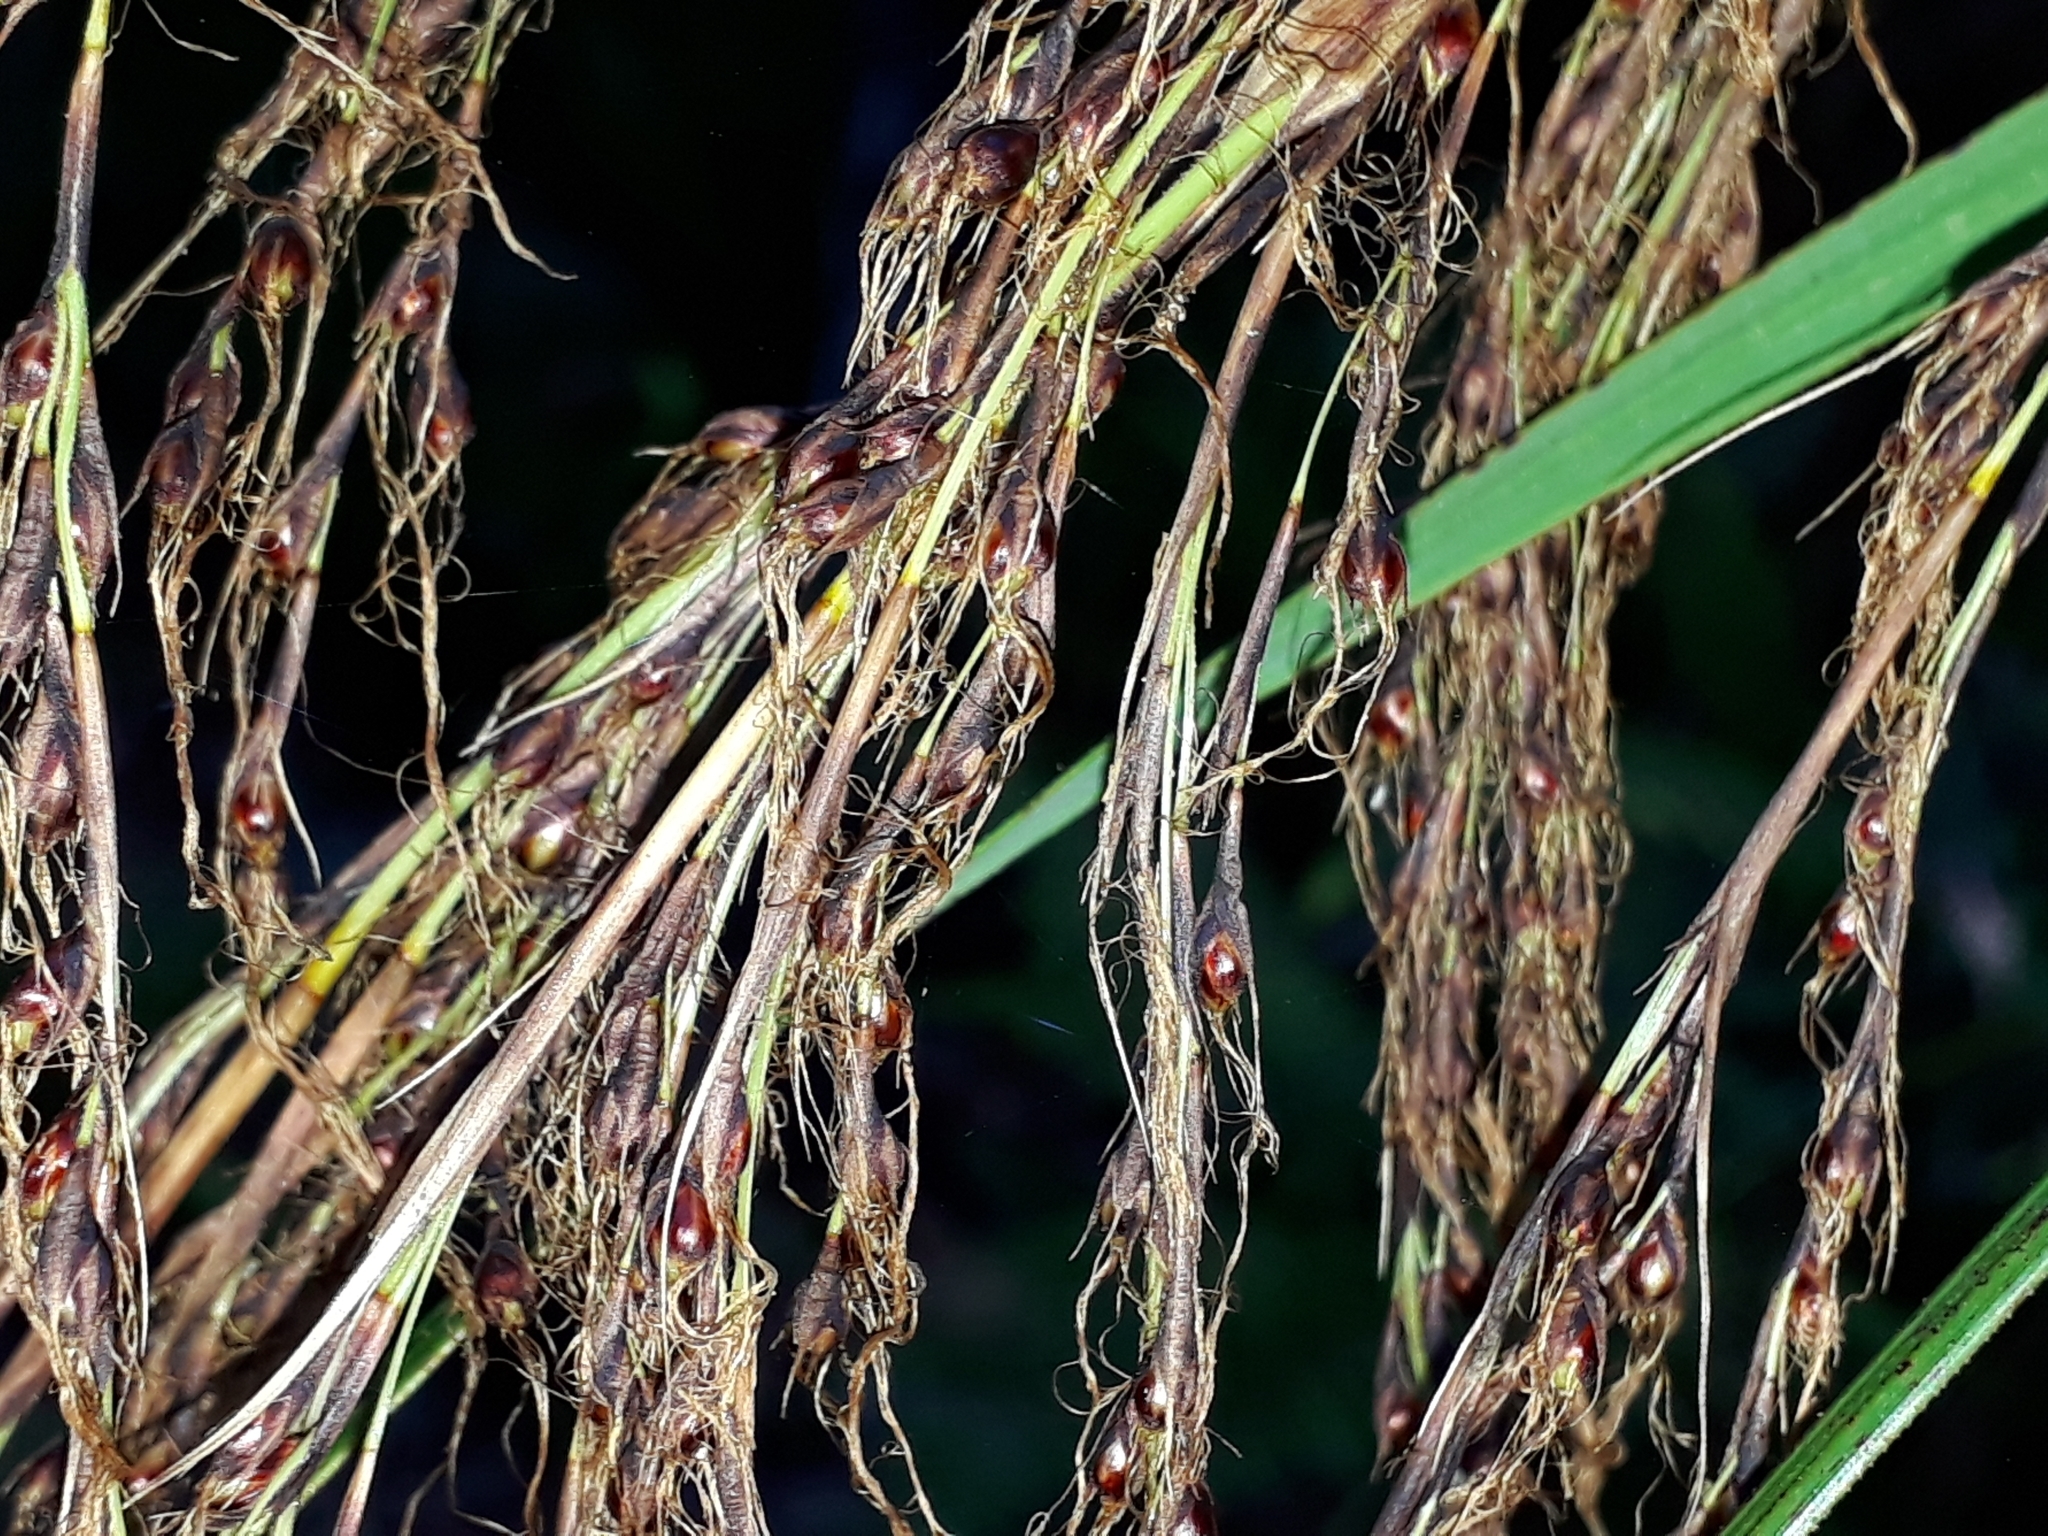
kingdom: Plantae
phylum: Tracheophyta
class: Liliopsida
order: Poales
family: Cyperaceae
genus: Gahnia
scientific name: Gahnia setifolia
